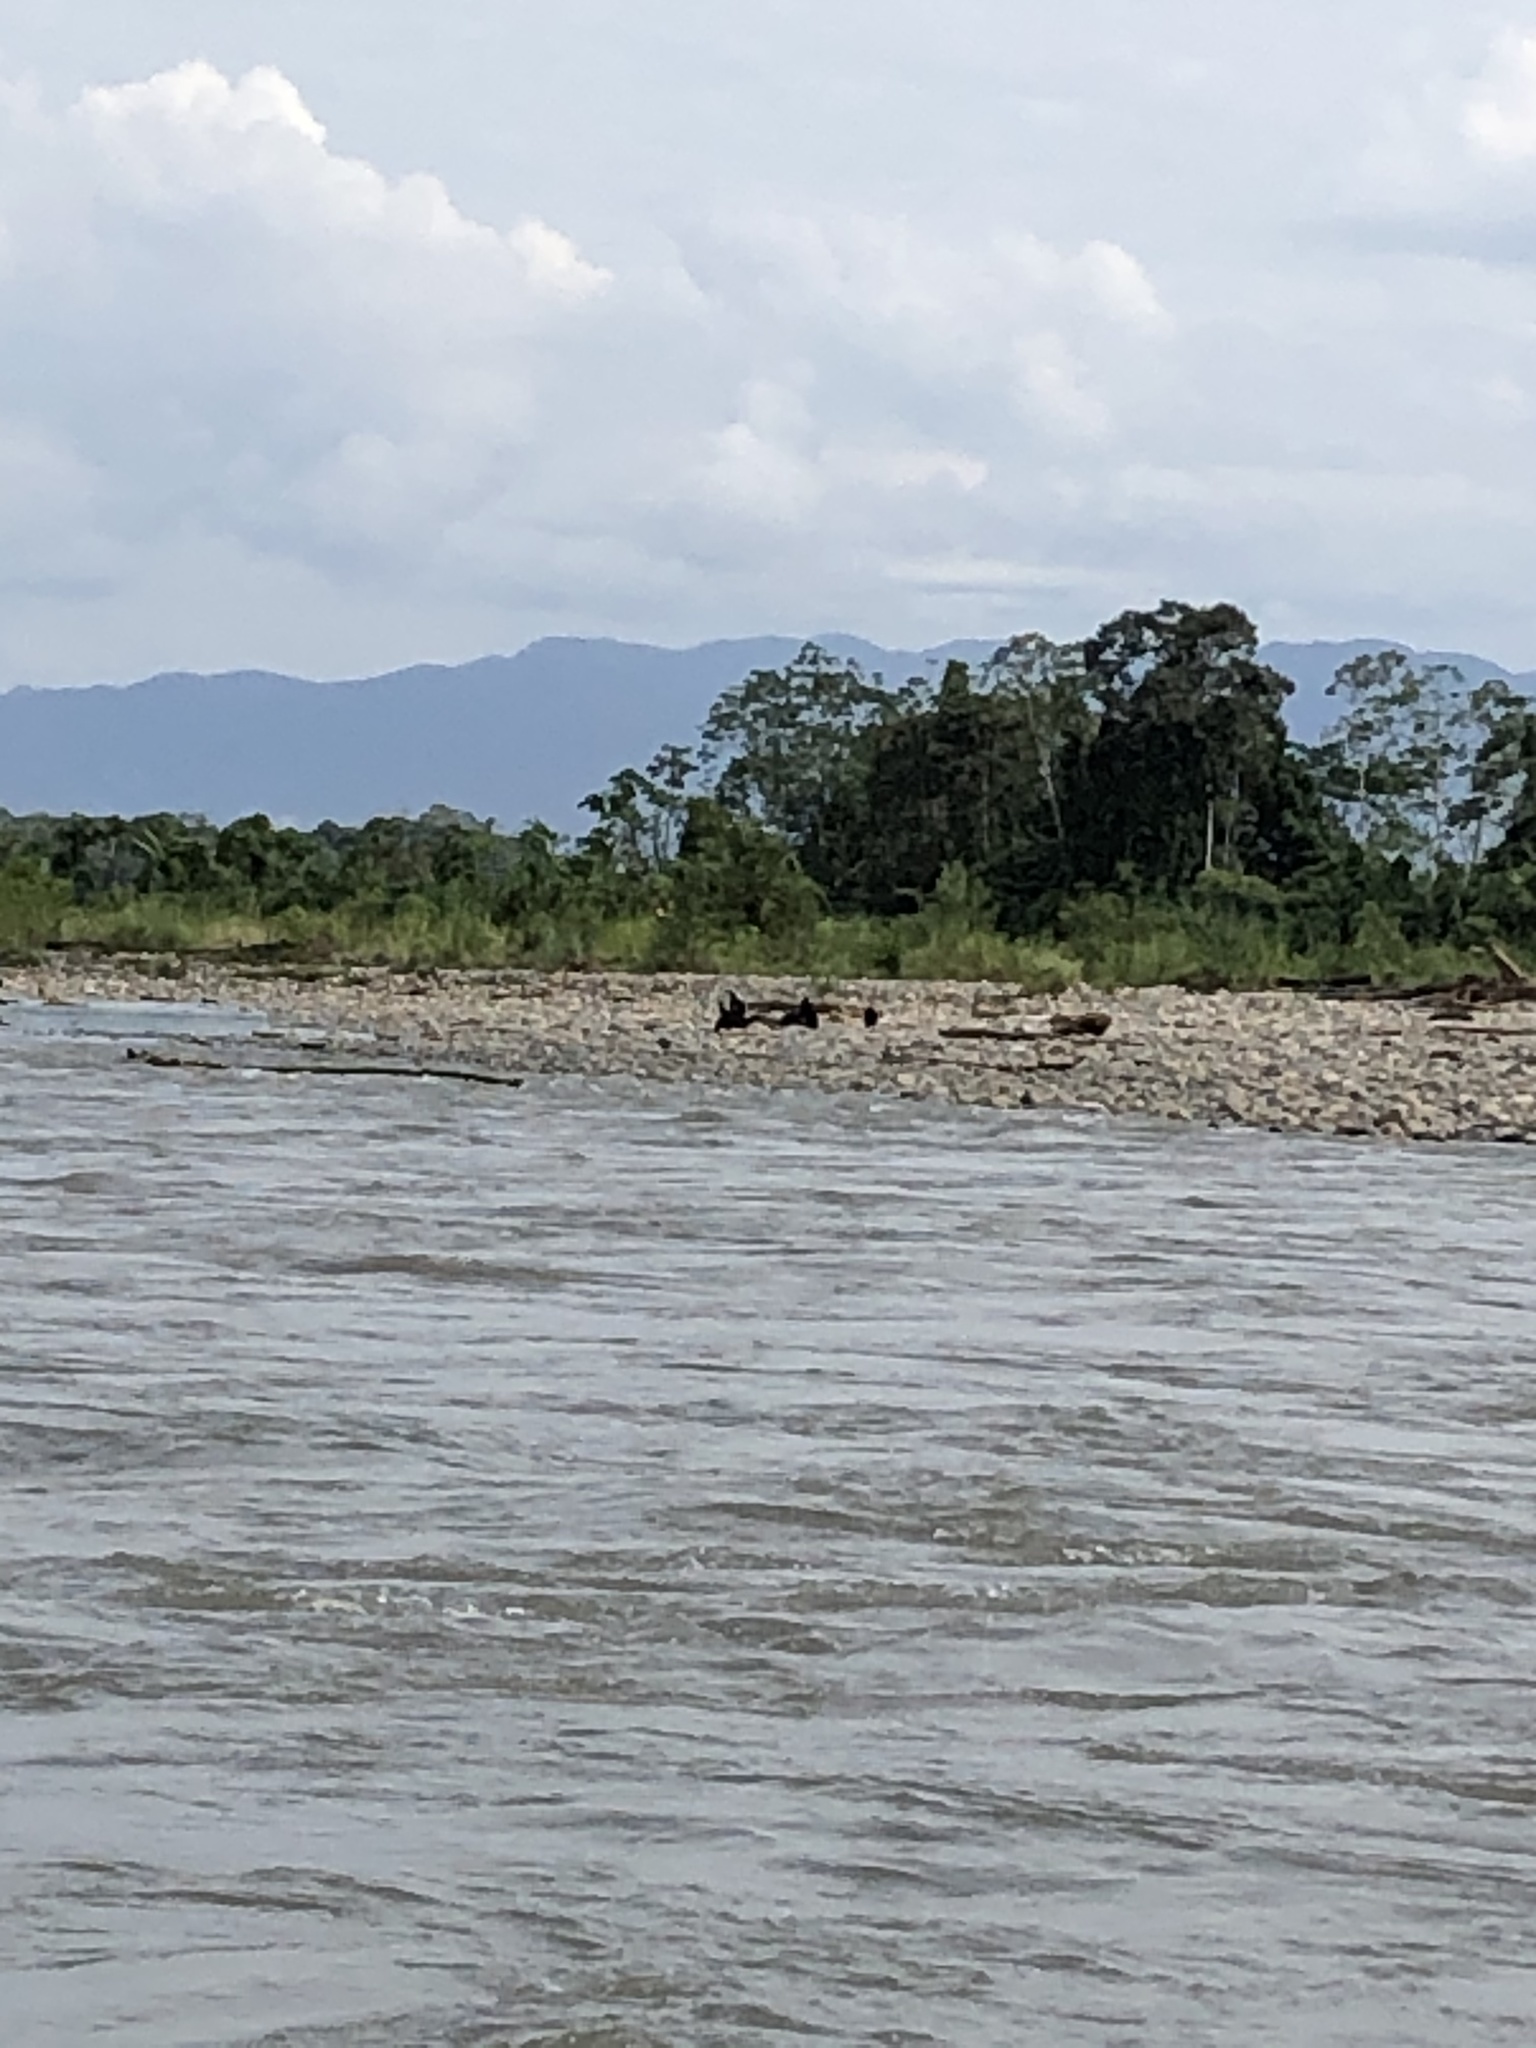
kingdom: Animalia
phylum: Chordata
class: Aves
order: Accipitriformes
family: Cathartidae
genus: Coragyps
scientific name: Coragyps atratus
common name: Black vulture
